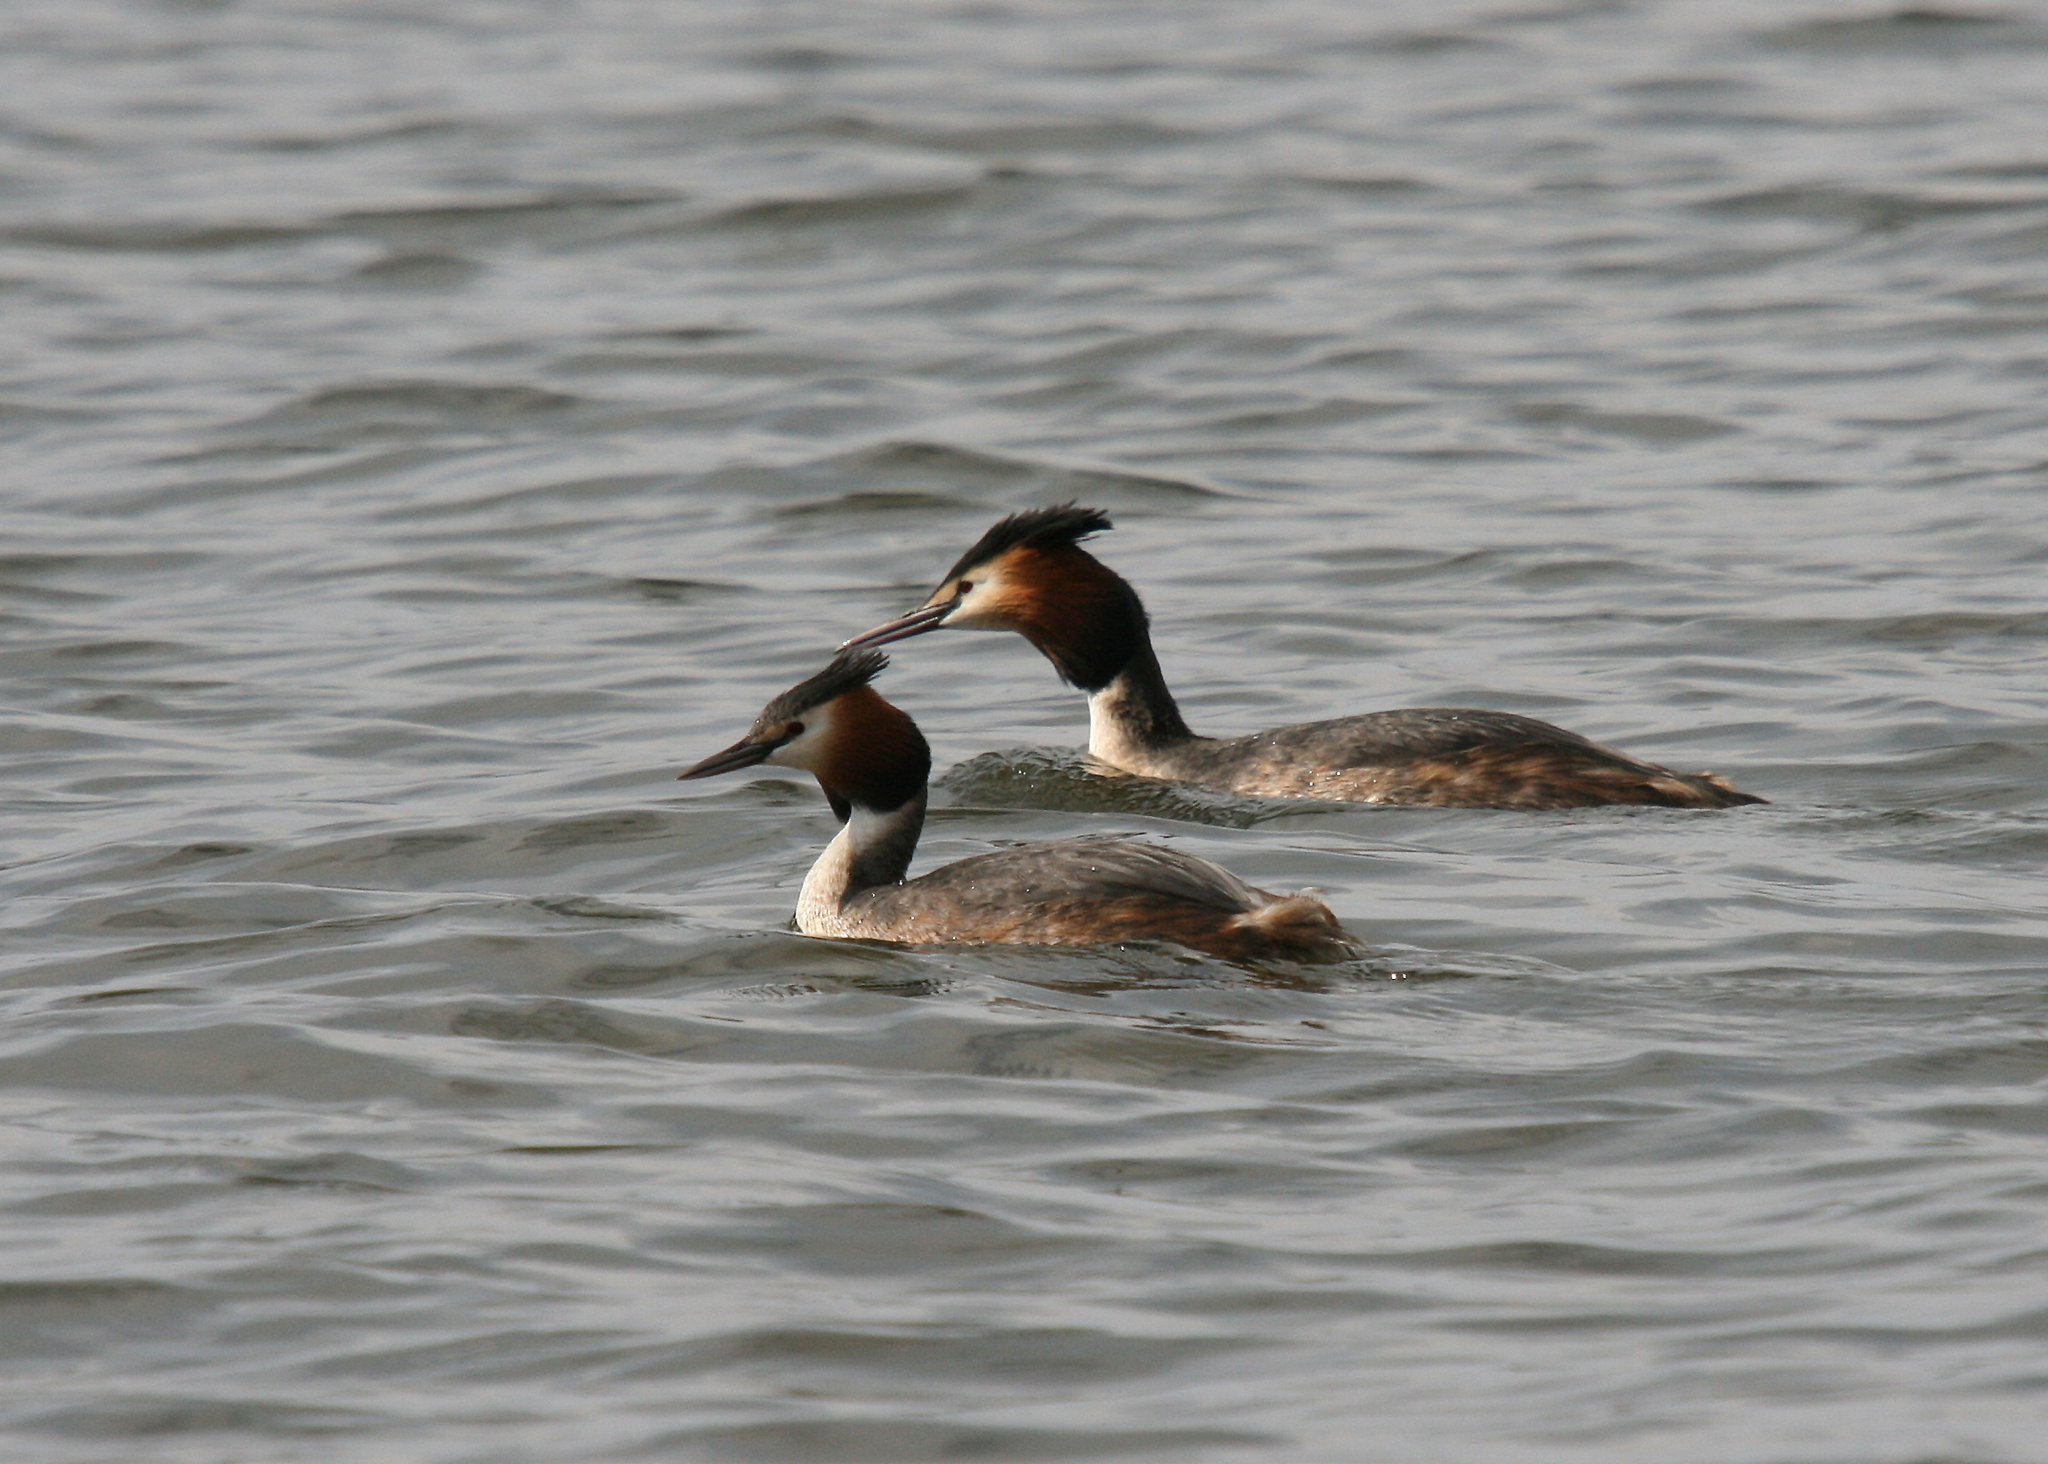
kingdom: Animalia
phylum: Chordata
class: Aves
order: Podicipediformes
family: Podicipedidae
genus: Podiceps
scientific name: Podiceps cristatus
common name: Great crested grebe
